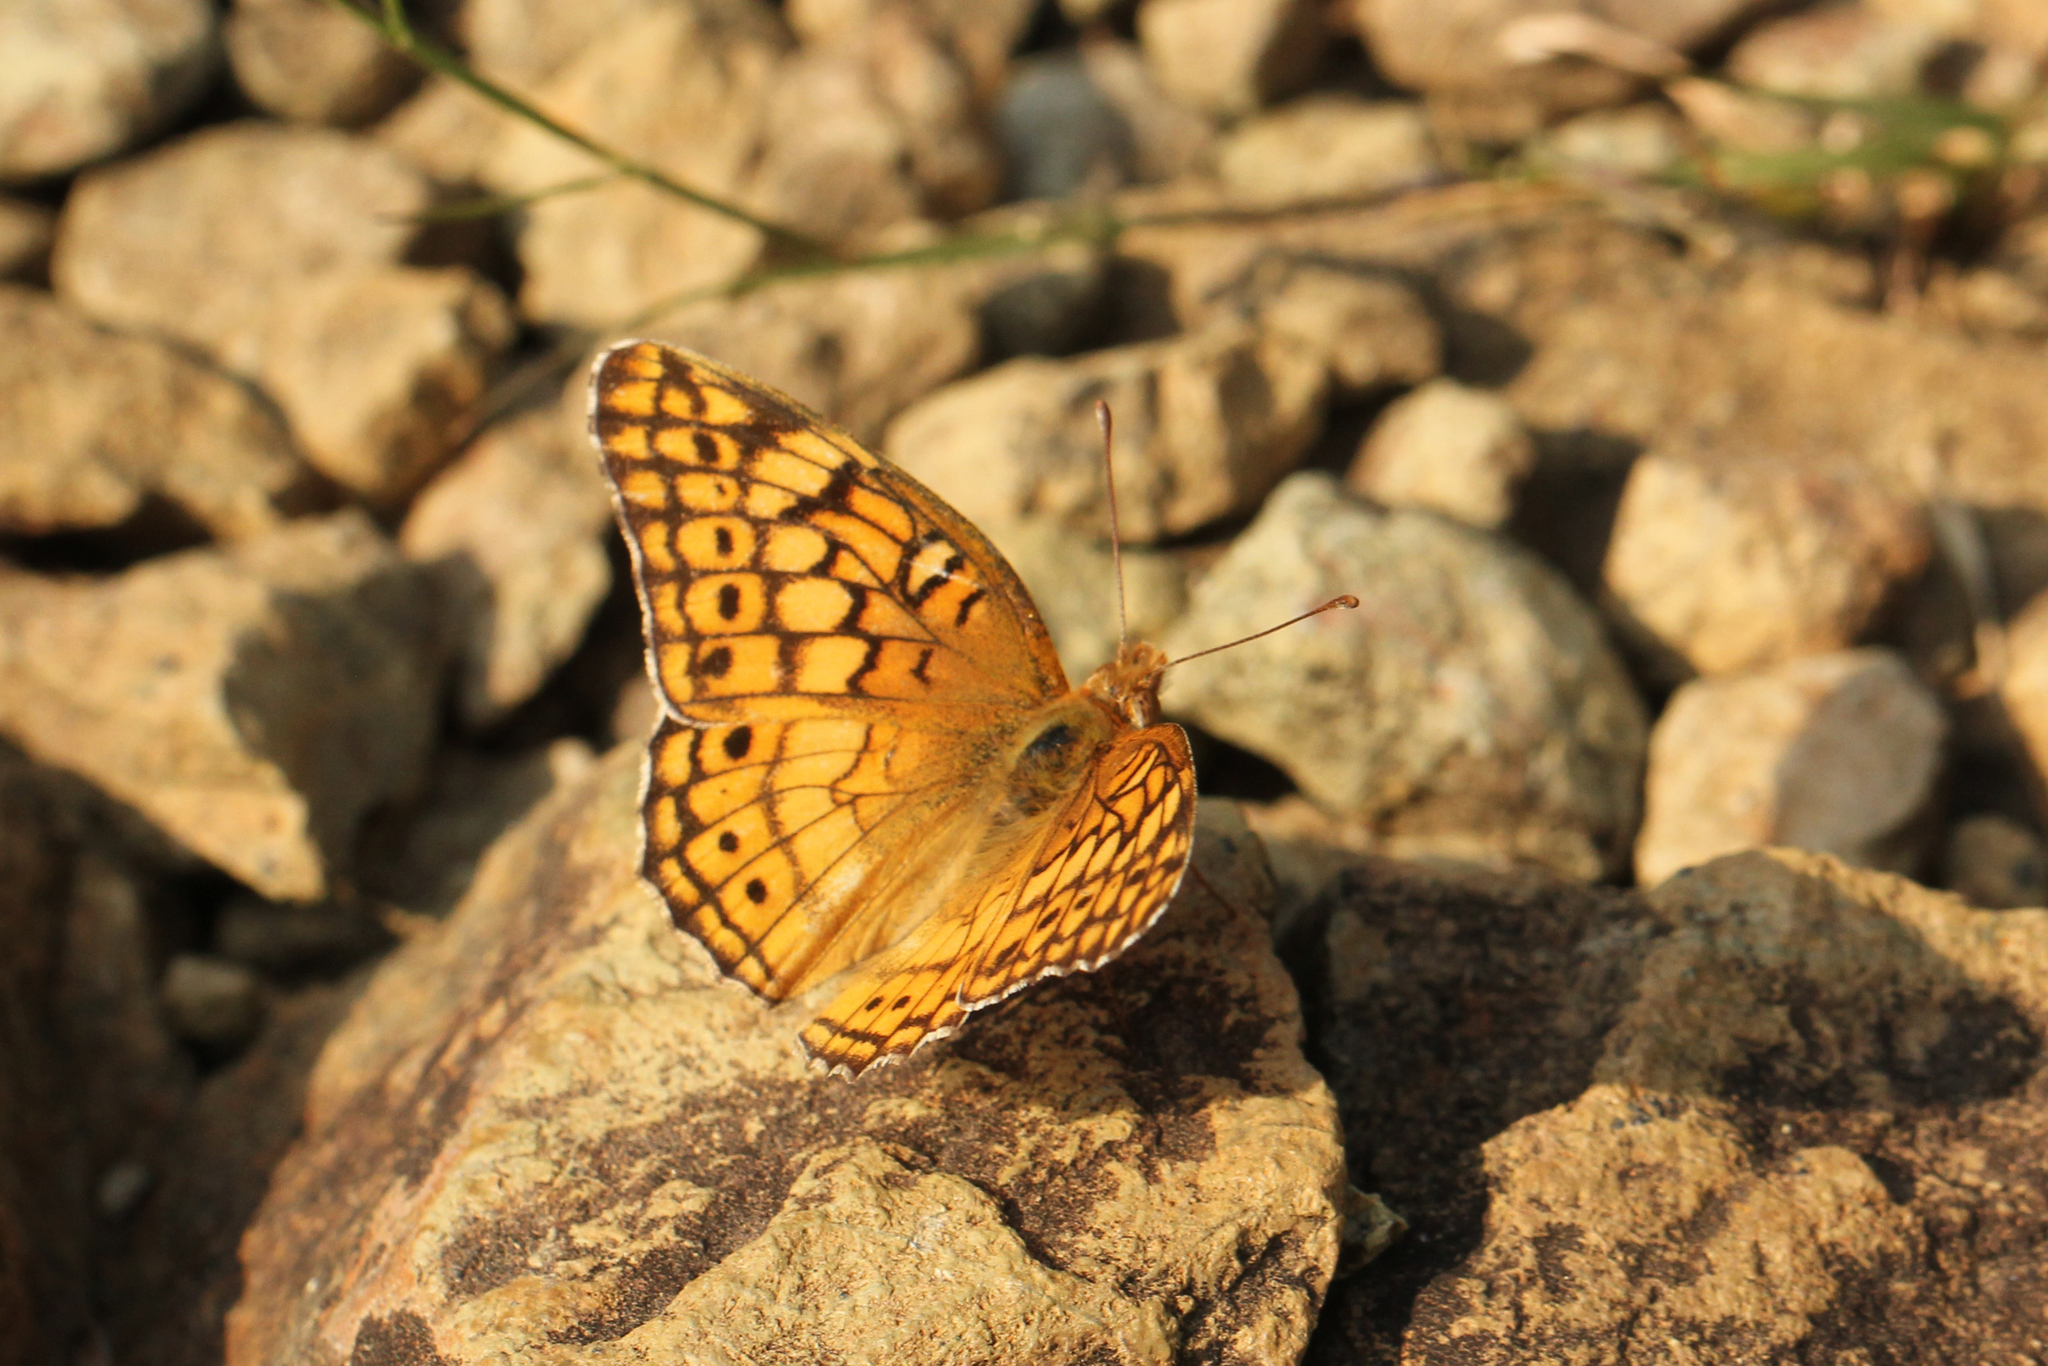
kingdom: Animalia
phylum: Arthropoda
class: Insecta
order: Lepidoptera
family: Nymphalidae
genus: Euptoieta
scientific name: Euptoieta claudia
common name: Variegated fritillary
